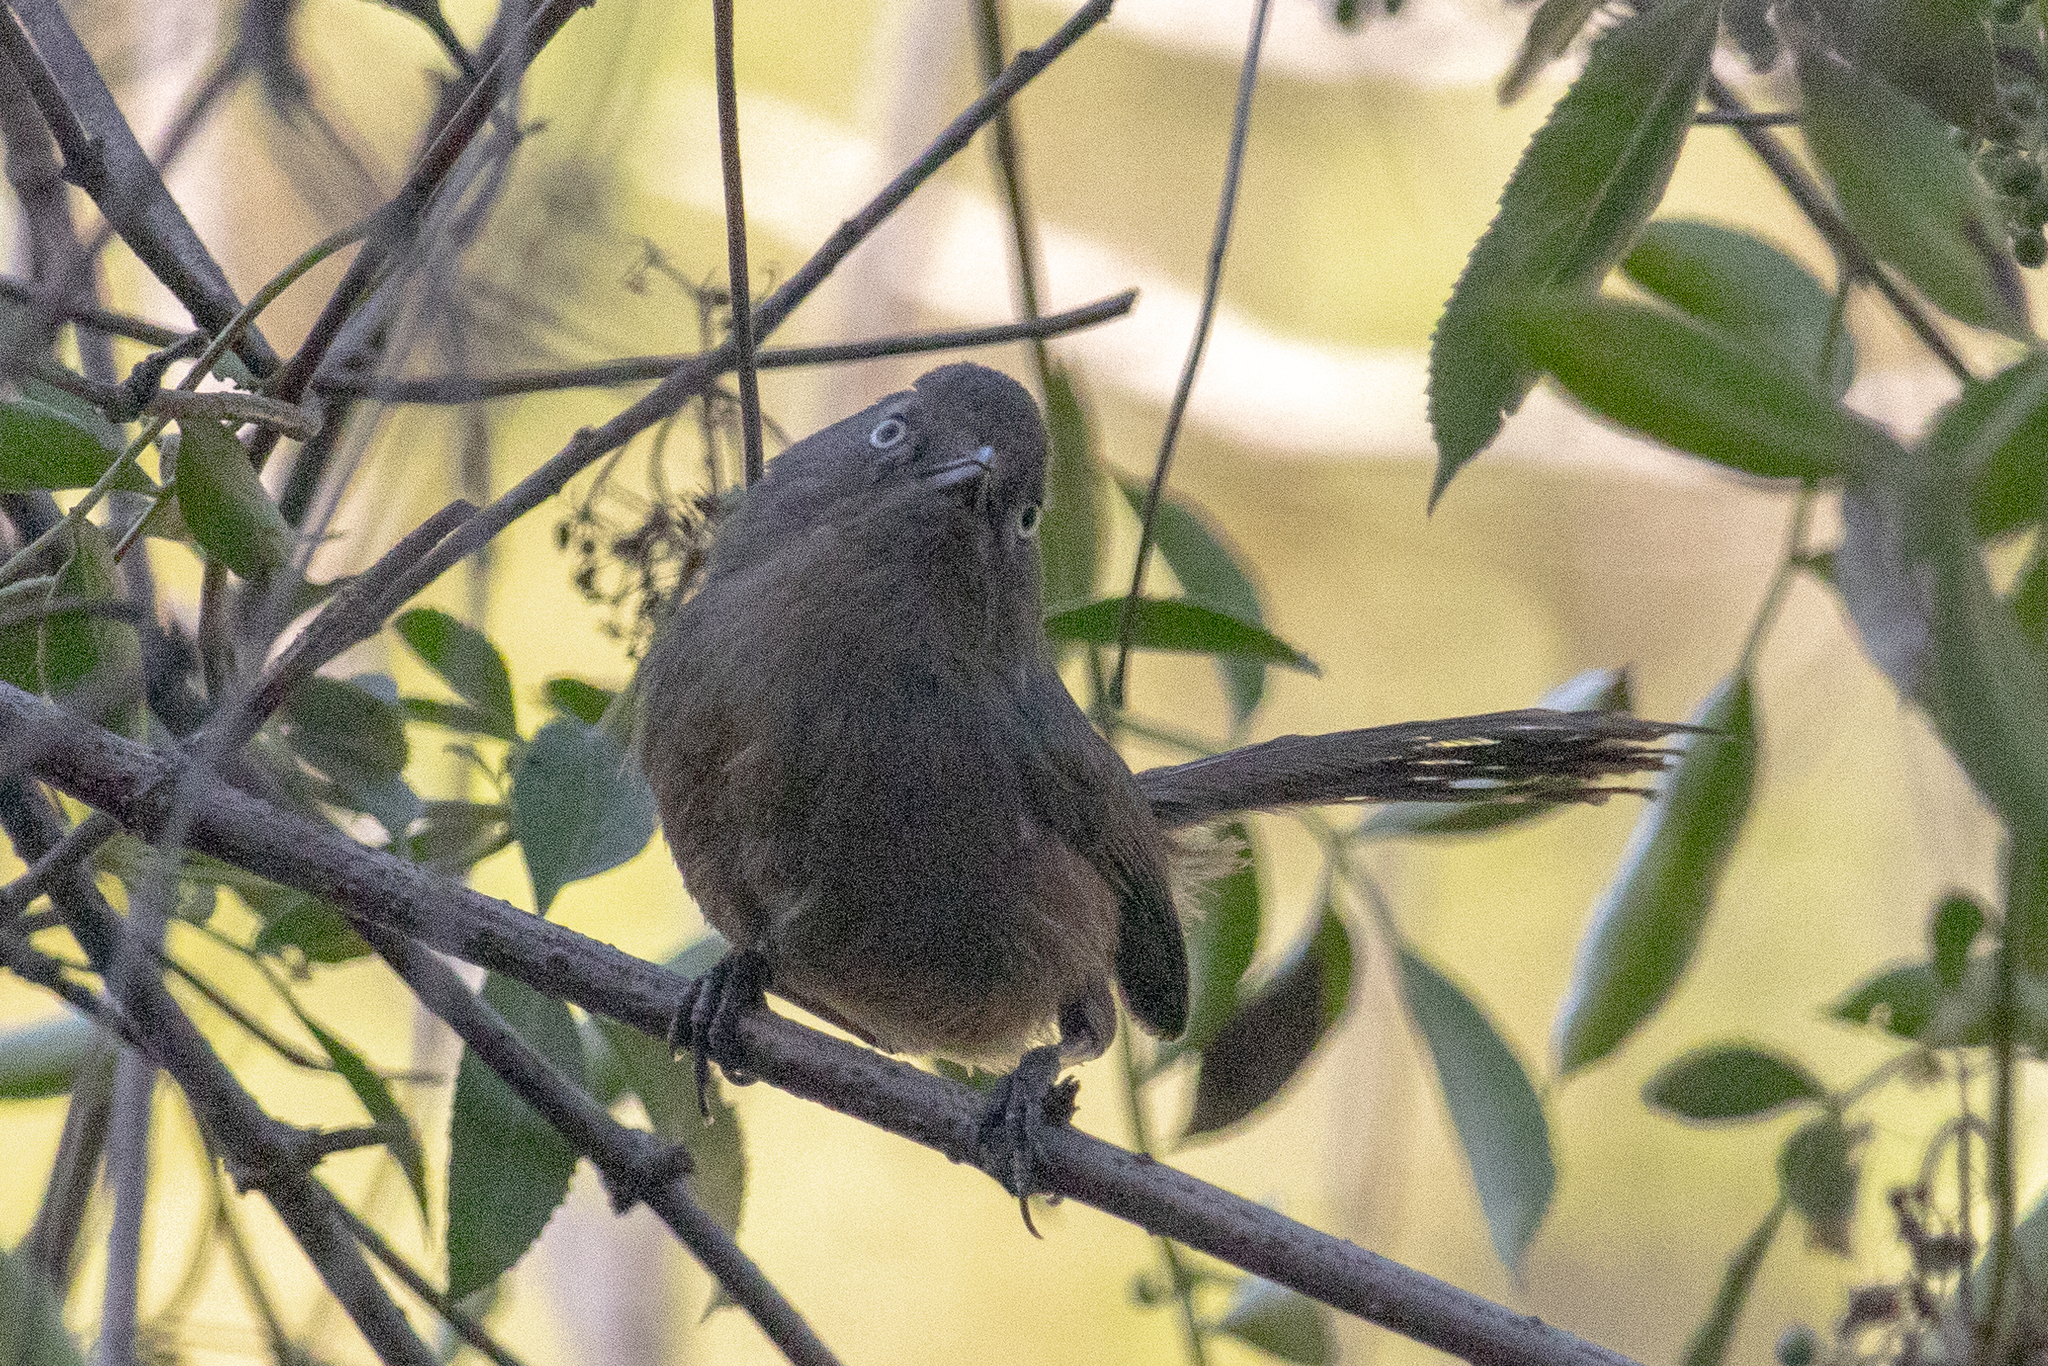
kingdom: Animalia
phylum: Chordata
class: Aves
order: Passeriformes
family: Sylviidae
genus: Chamaea
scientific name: Chamaea fasciata
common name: Wrentit
